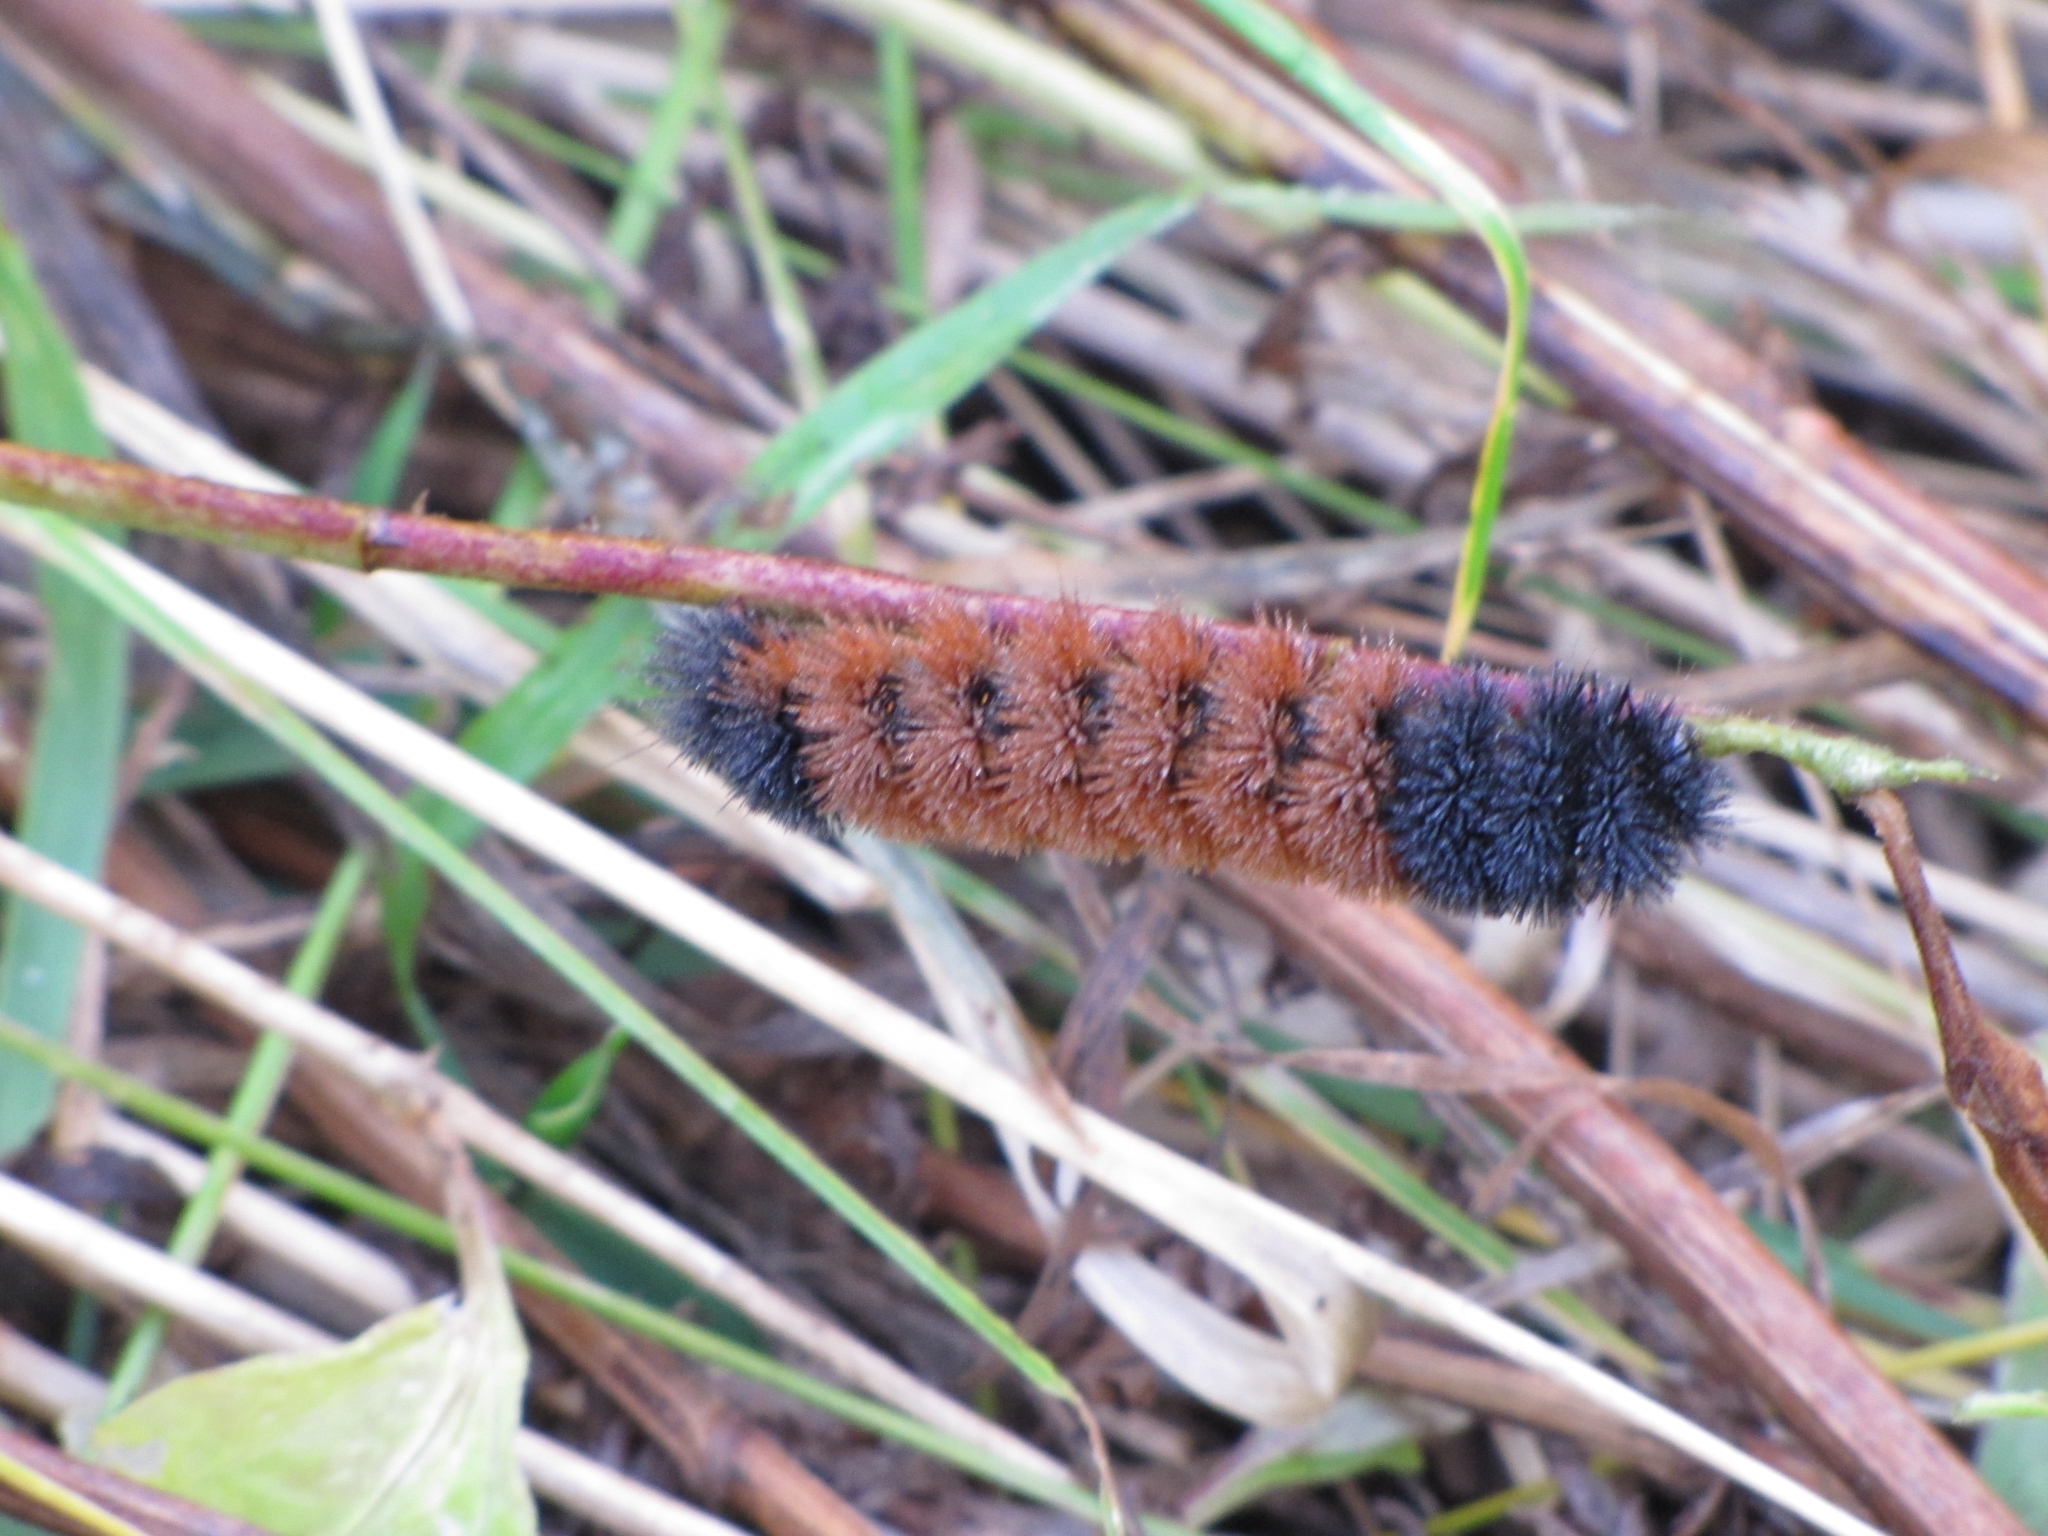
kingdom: Animalia
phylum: Arthropoda
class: Insecta
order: Lepidoptera
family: Erebidae
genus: Pyrrharctia
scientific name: Pyrrharctia isabella
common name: Isabella tiger moth
